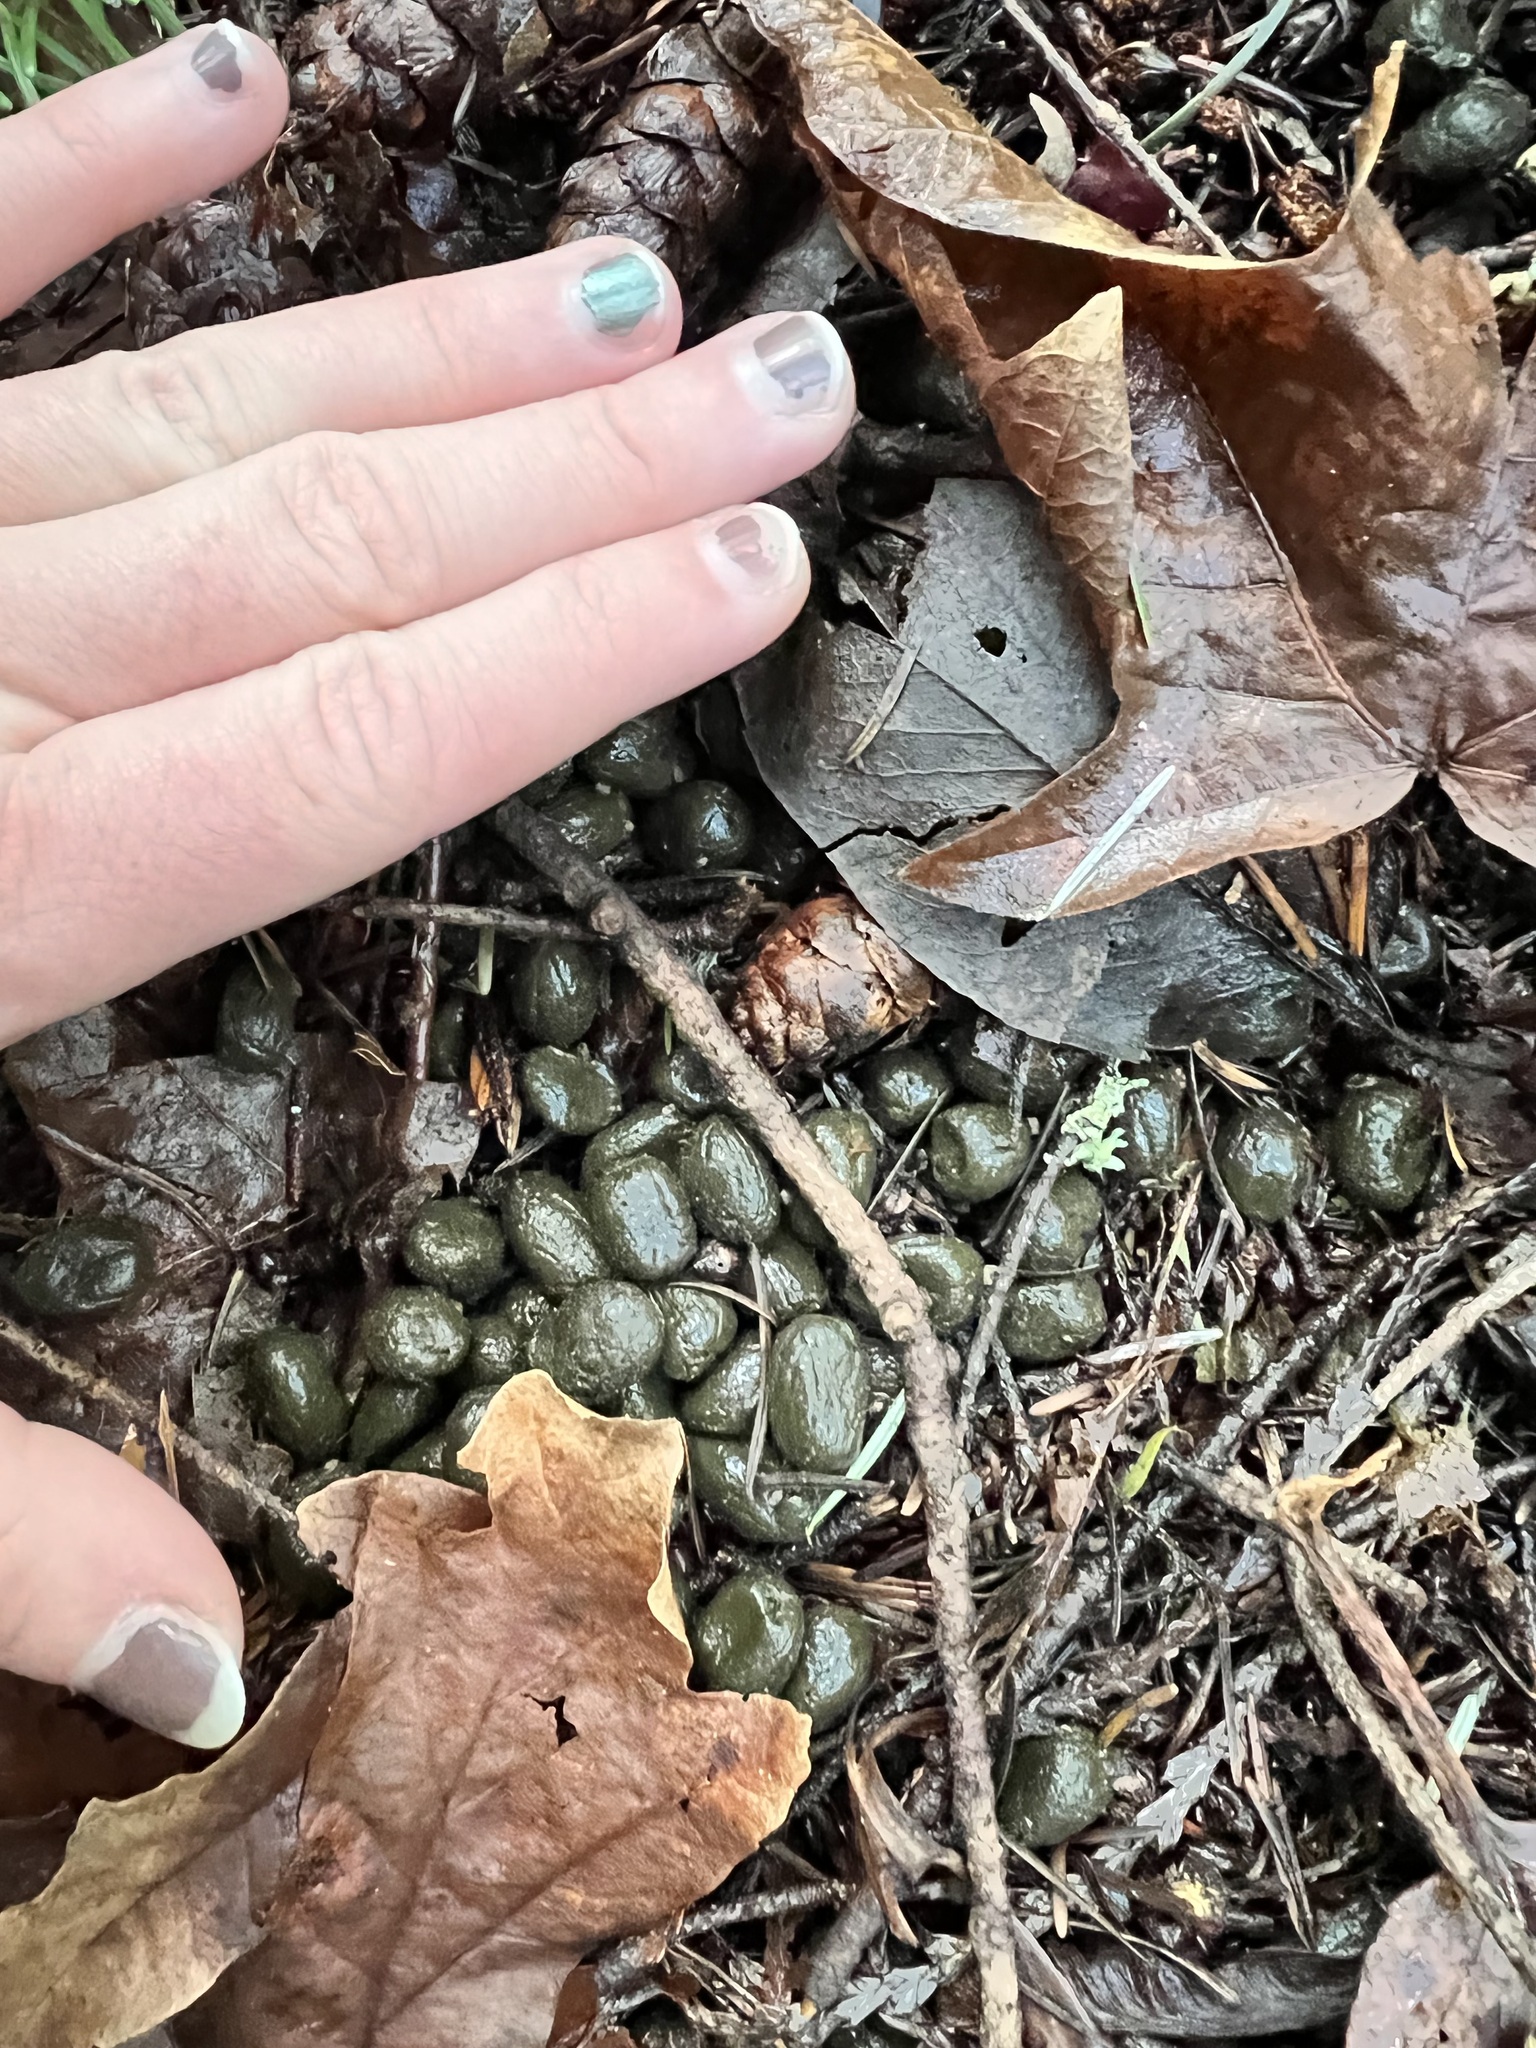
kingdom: Animalia
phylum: Chordata
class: Mammalia
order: Artiodactyla
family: Cervidae
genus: Odocoileus
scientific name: Odocoileus hemionus
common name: Mule deer
